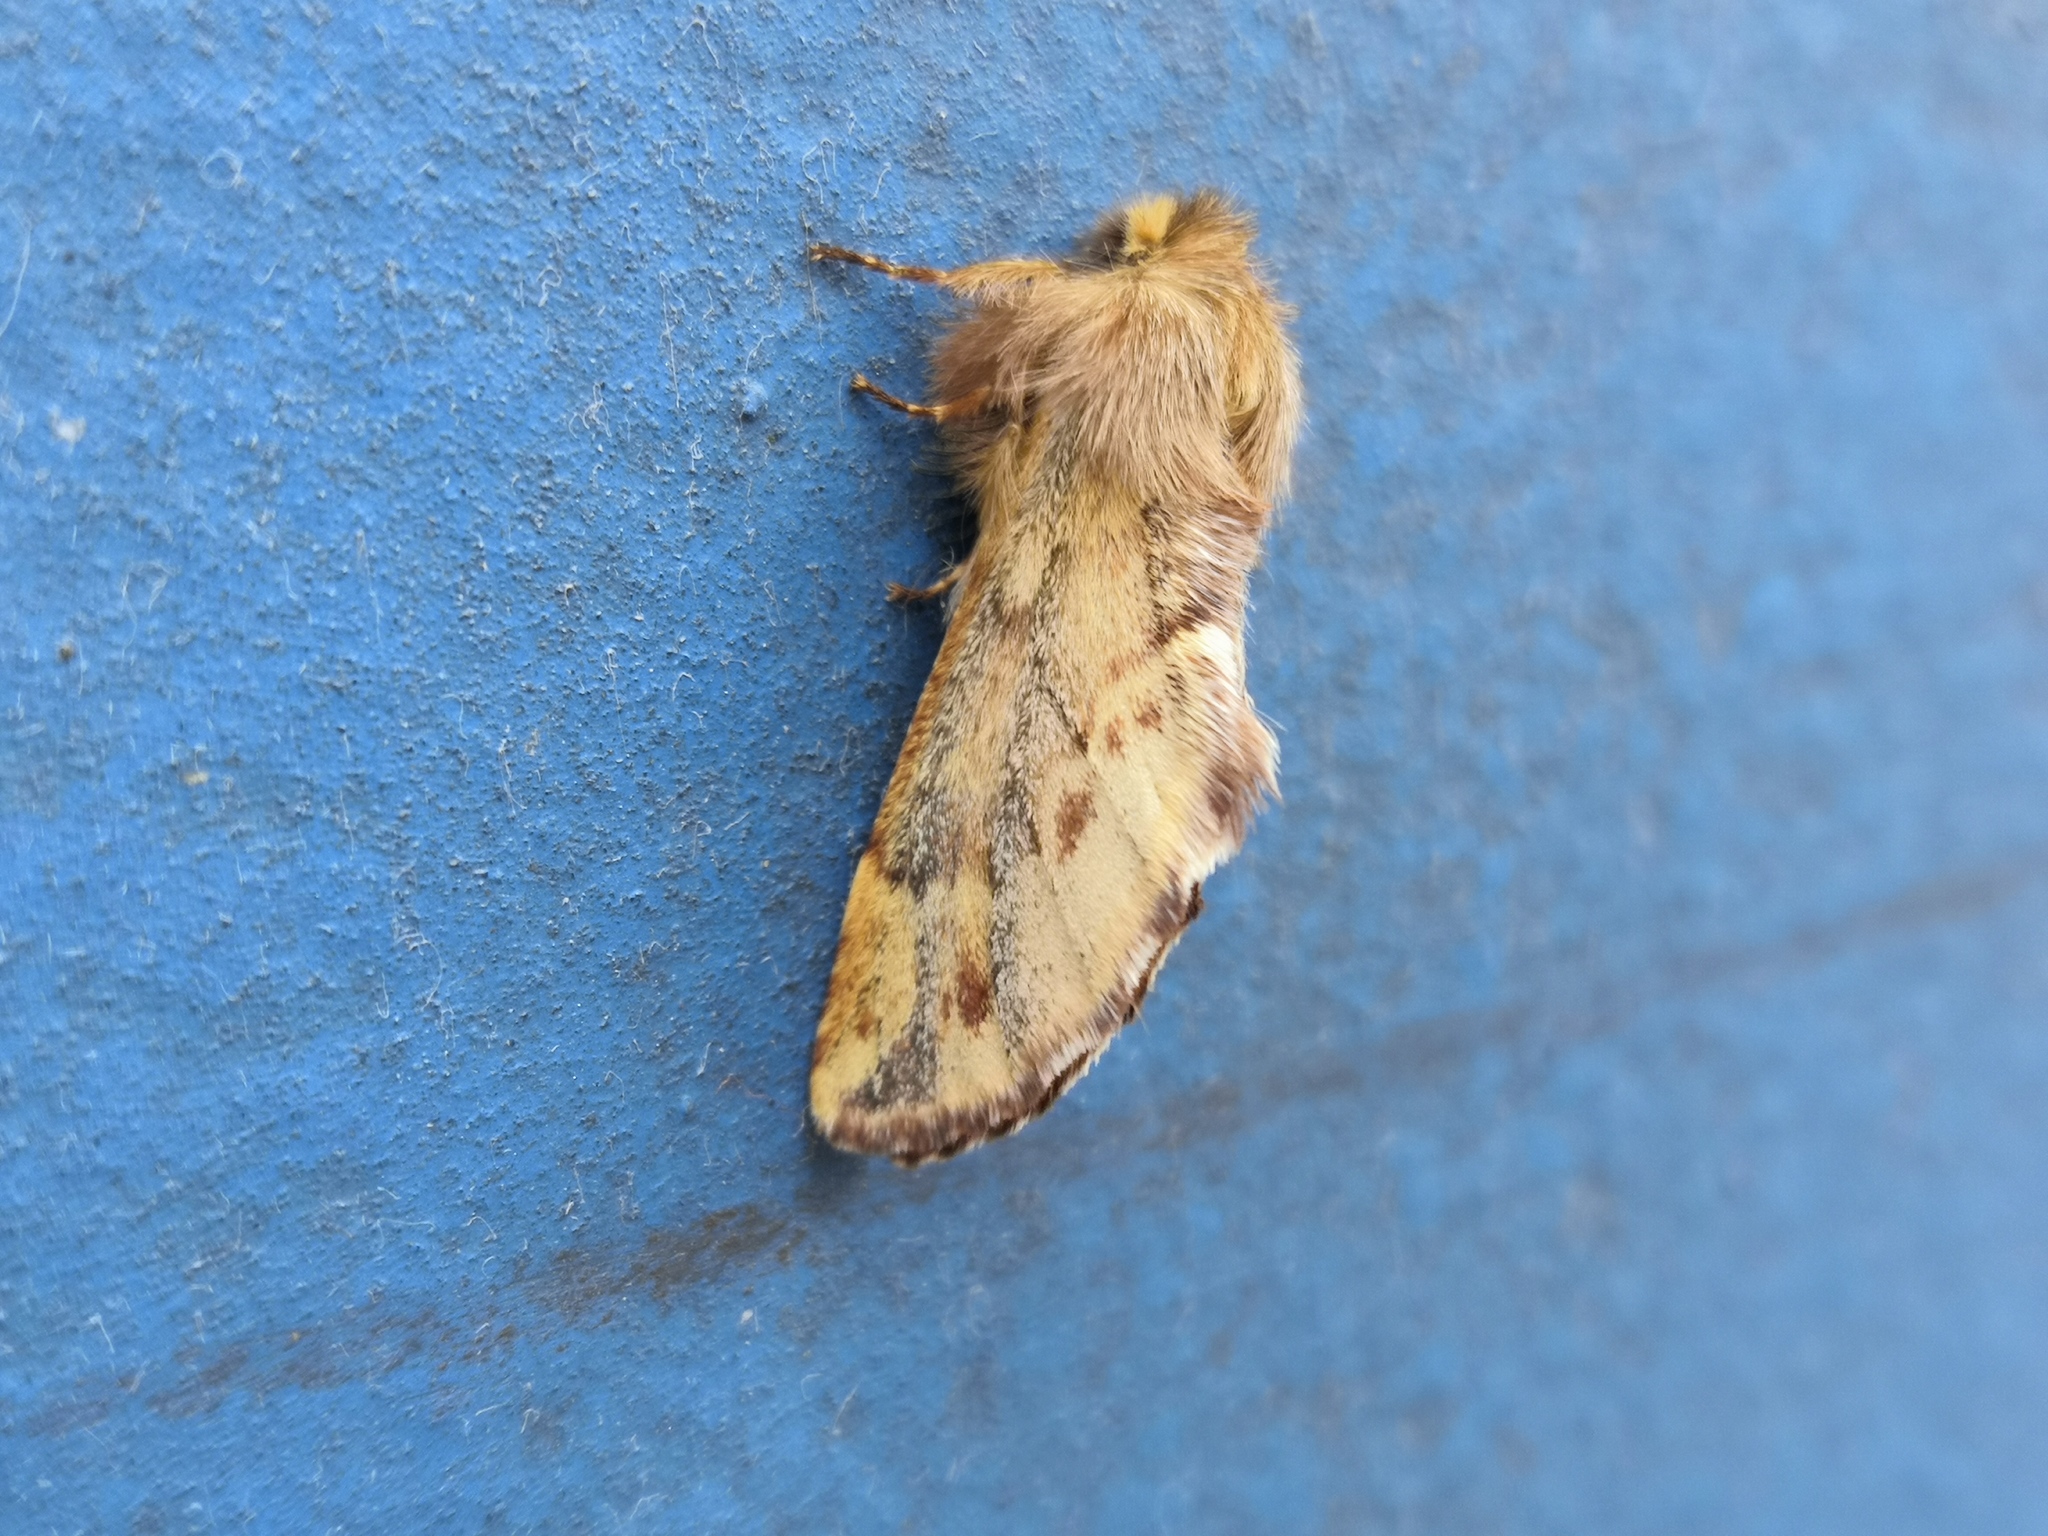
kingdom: Animalia
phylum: Arthropoda
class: Insecta
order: Lepidoptera
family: Notodontidae
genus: Ptilophora
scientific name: Ptilophora plumigera
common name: Plumed prominent
